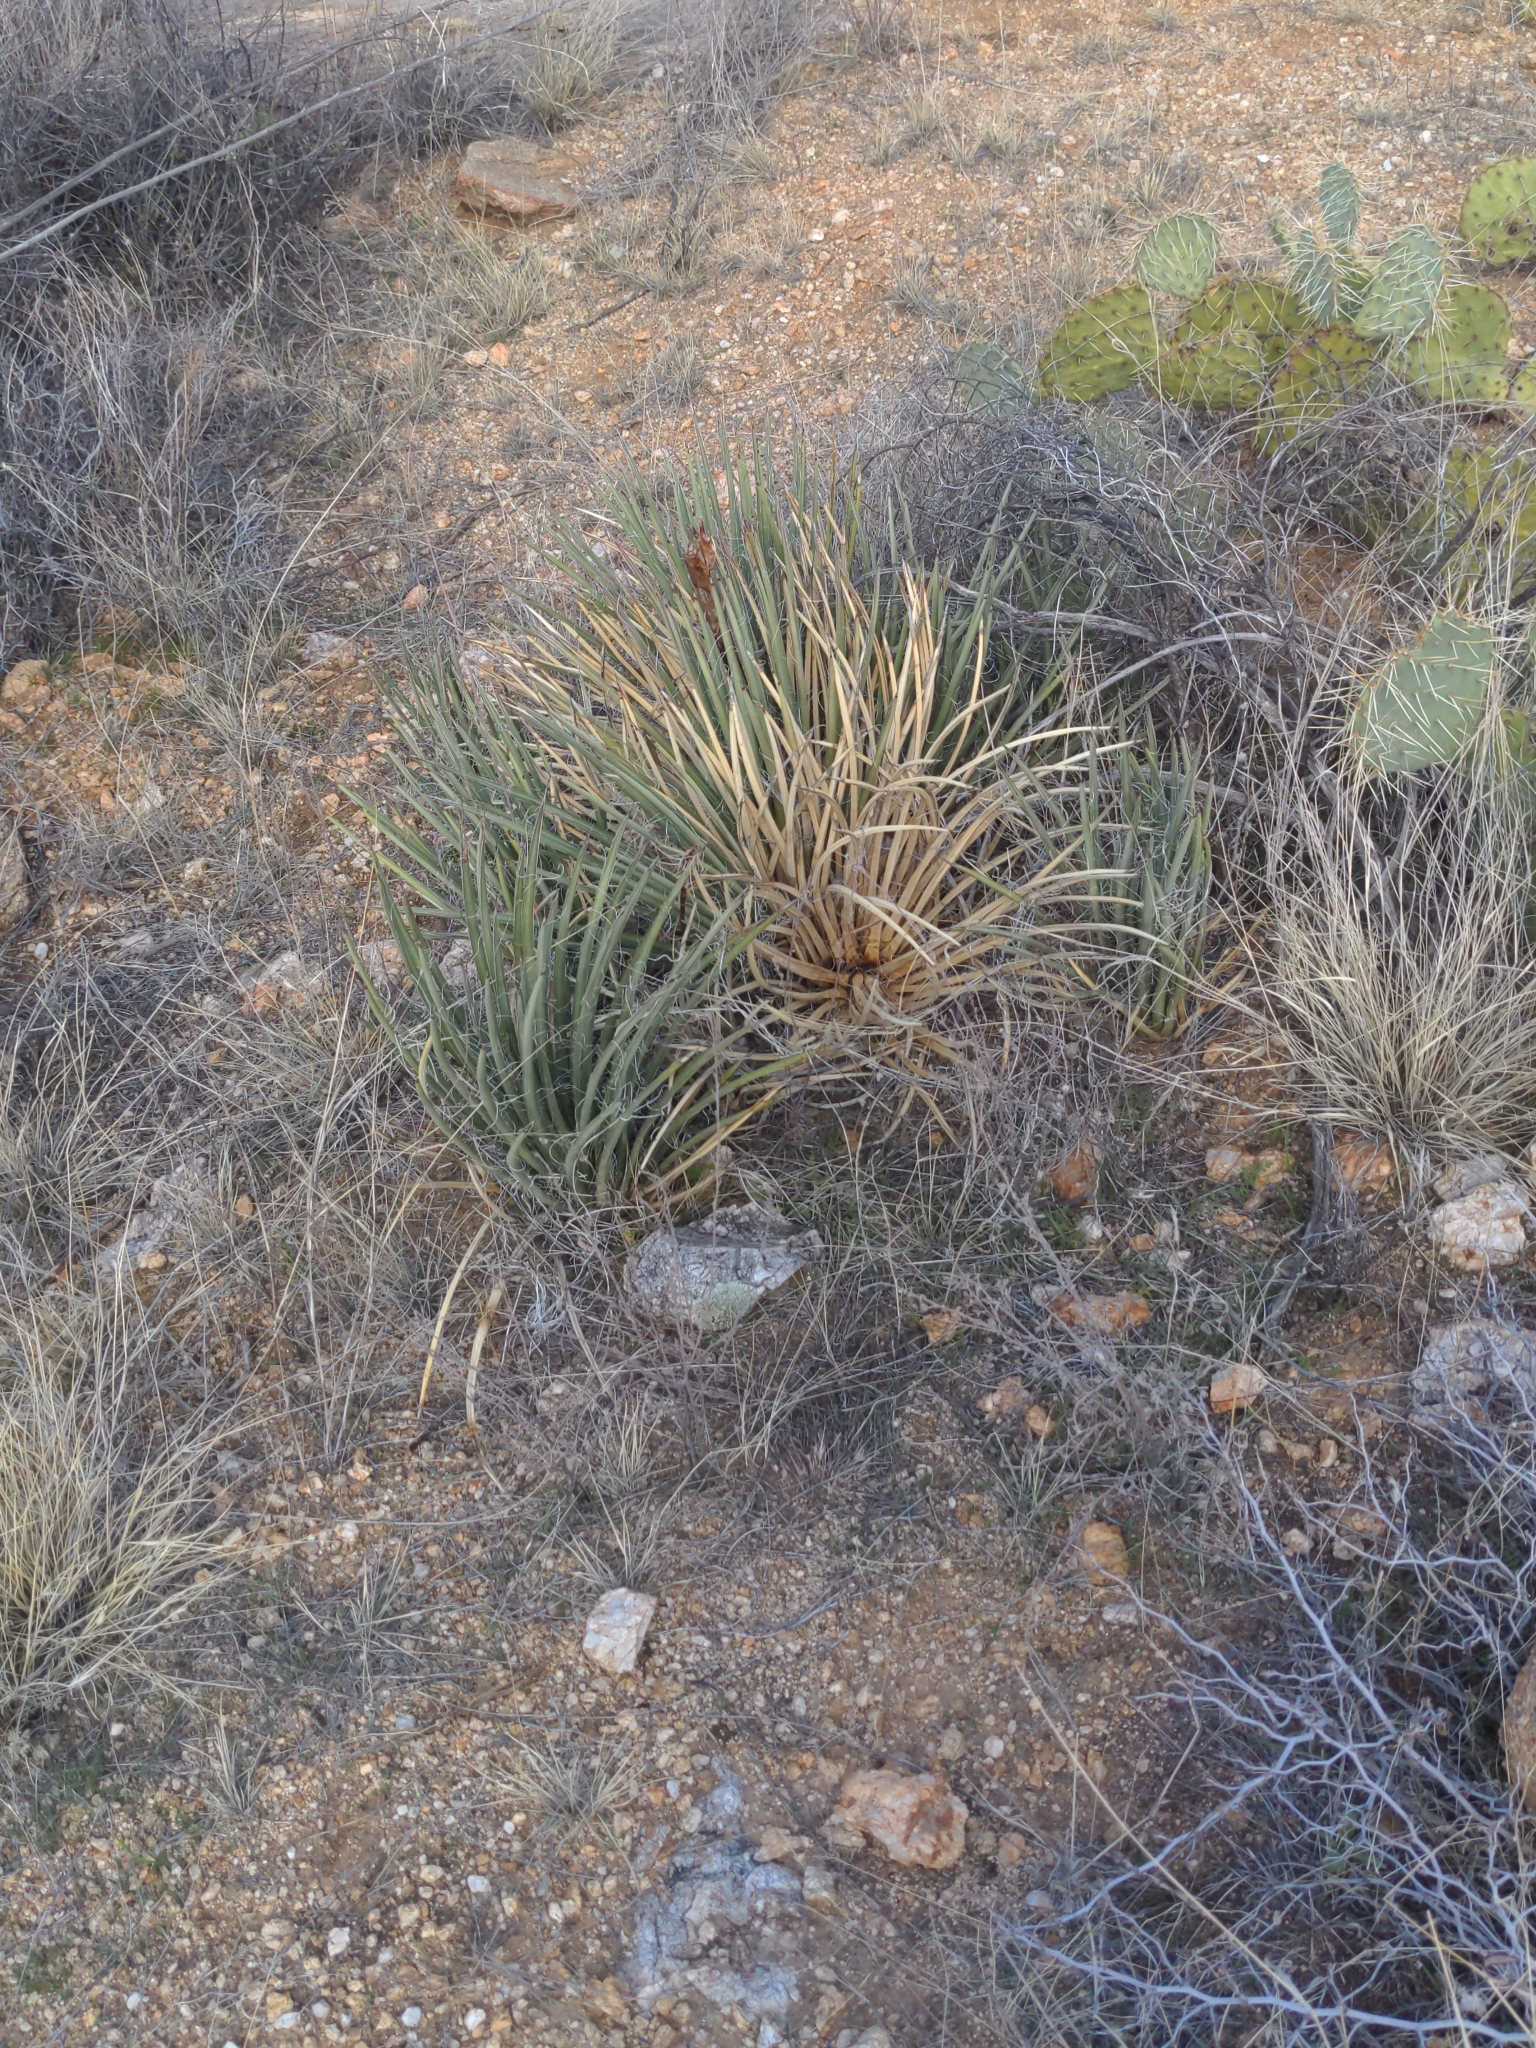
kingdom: Plantae
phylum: Tracheophyta
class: Liliopsida
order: Asparagales
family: Asparagaceae
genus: Agave
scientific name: Agave schottii
